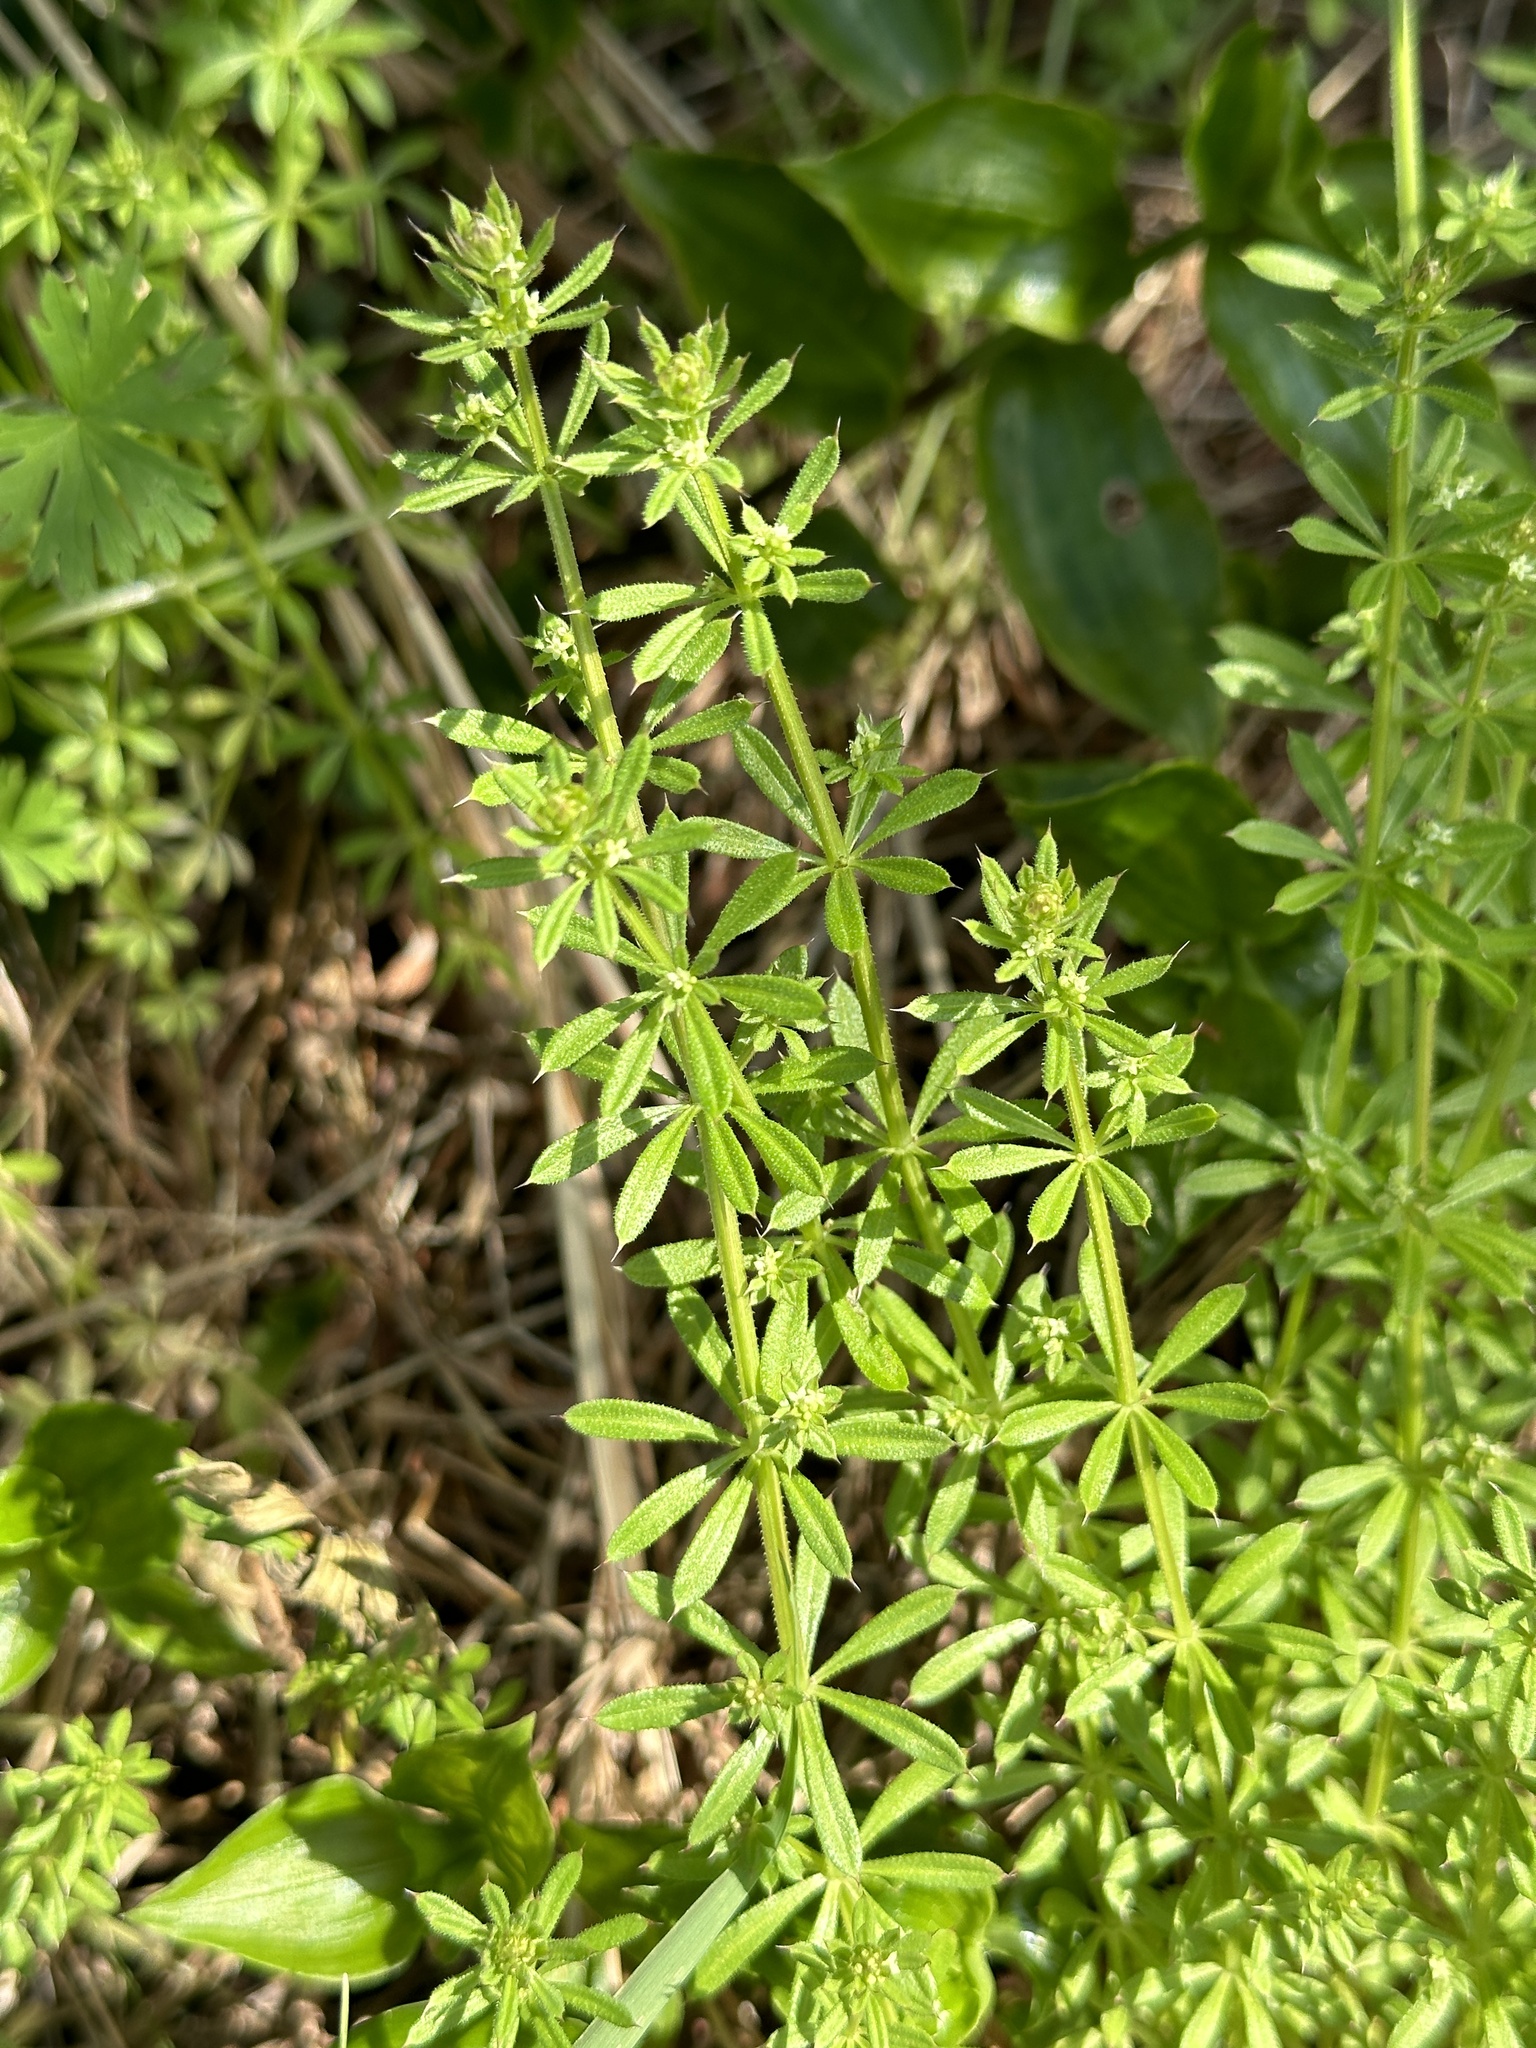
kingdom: Plantae
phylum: Tracheophyta
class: Magnoliopsida
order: Gentianales
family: Rubiaceae
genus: Galium
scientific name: Galium
